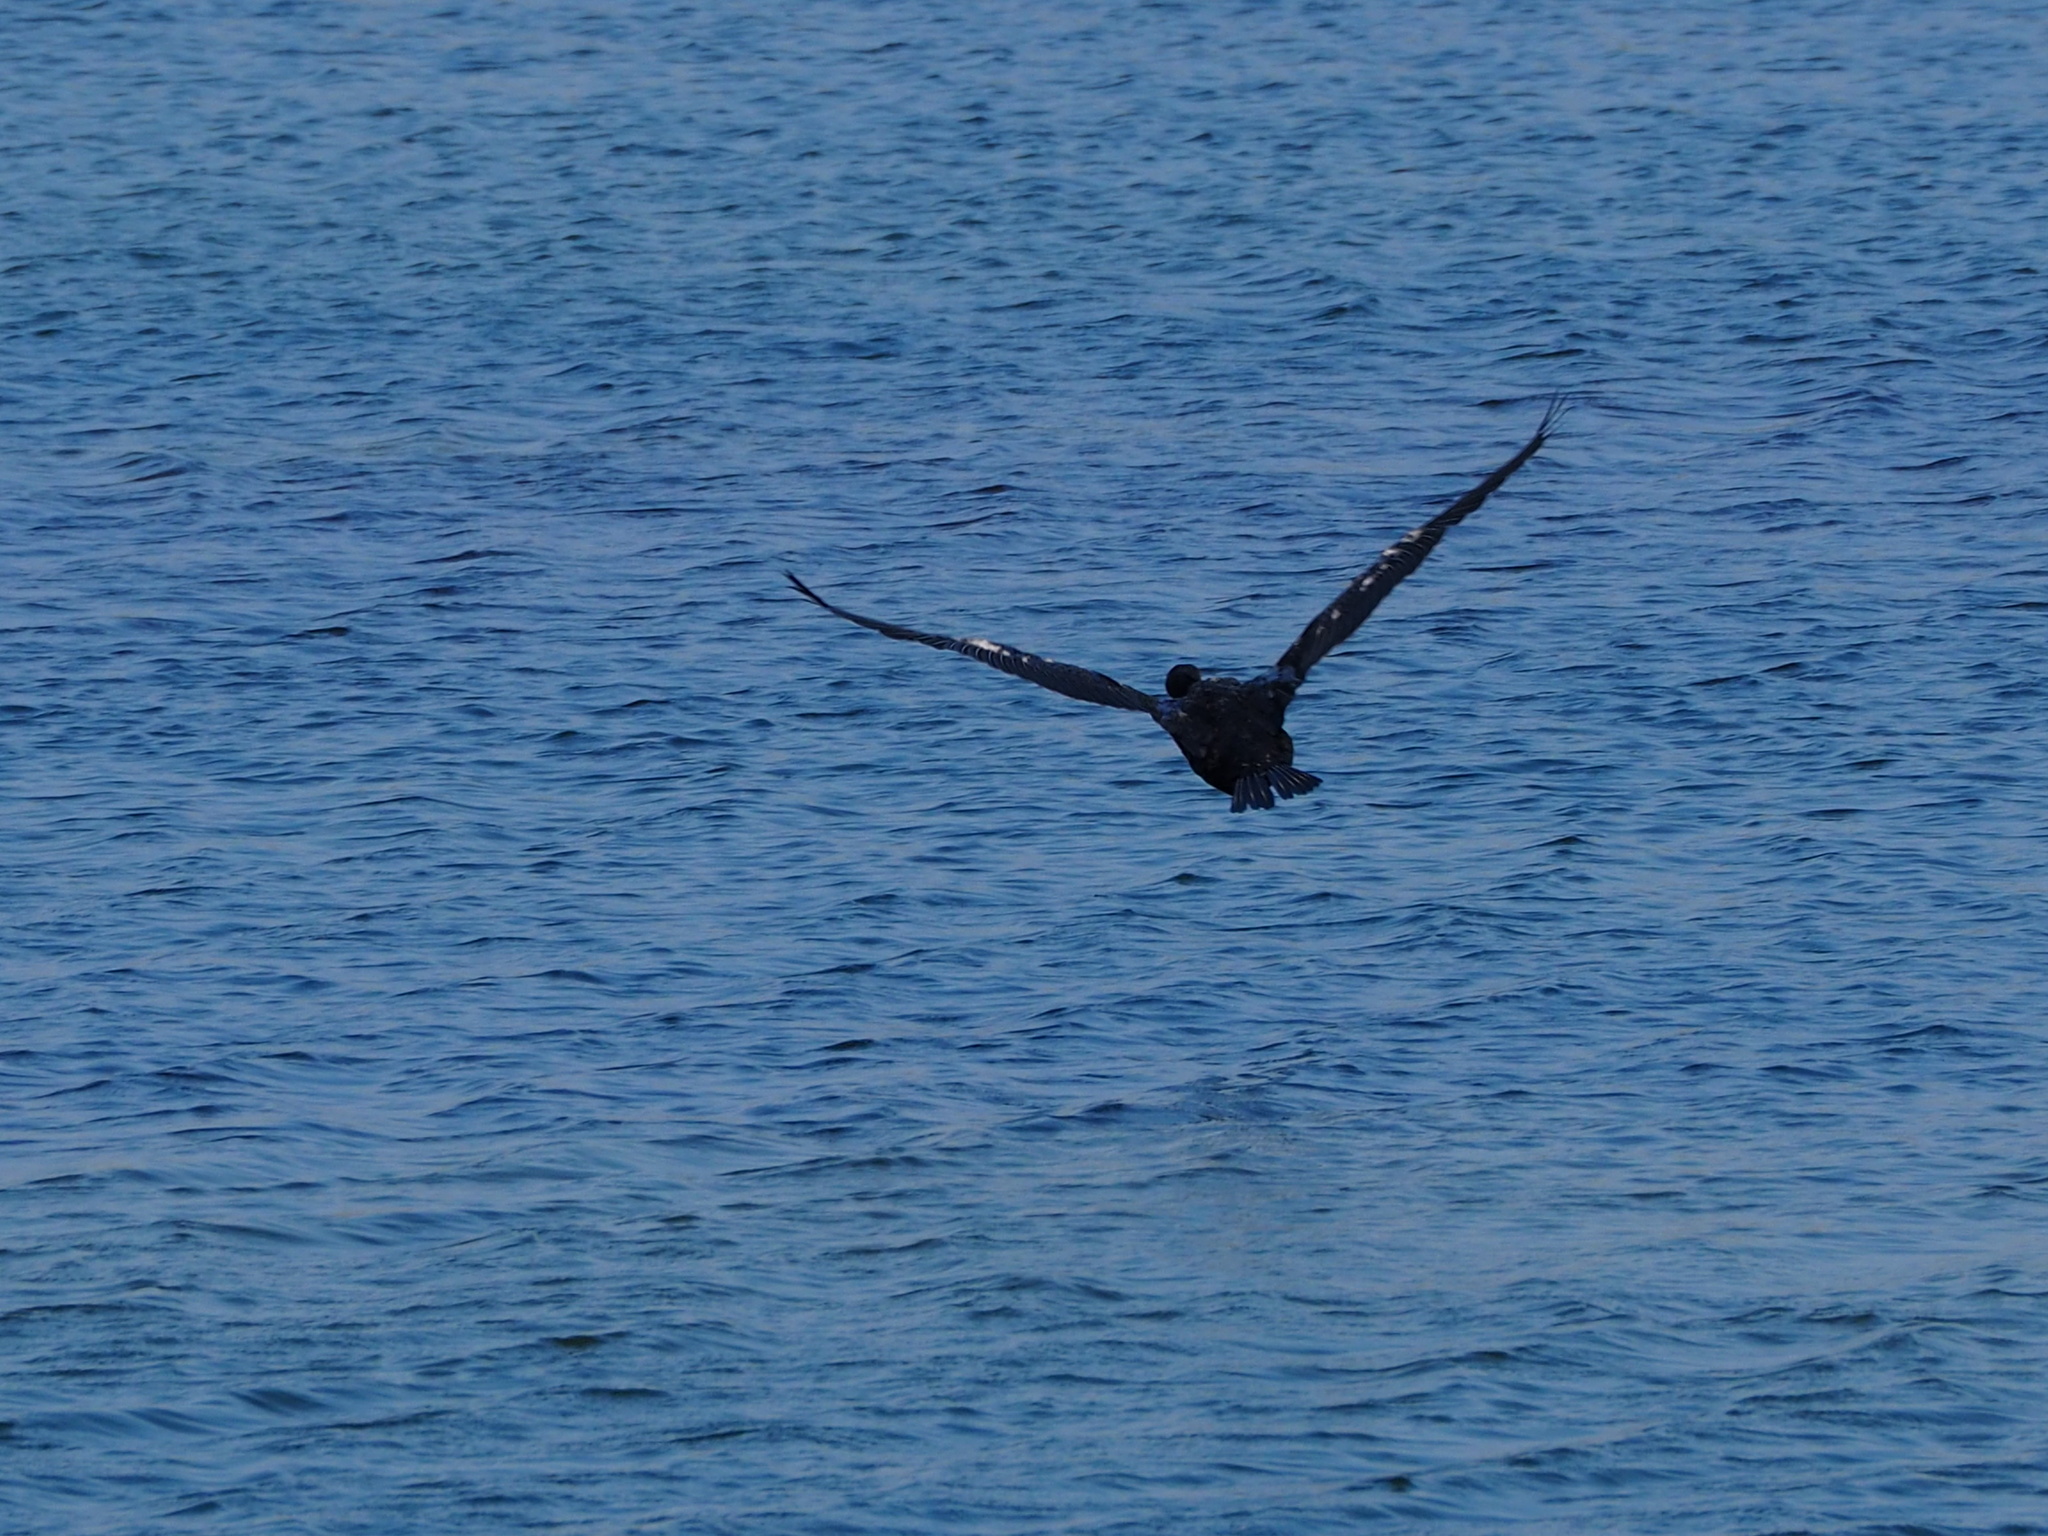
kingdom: Animalia
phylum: Chordata
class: Aves
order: Suliformes
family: Phalacrocoracidae
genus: Phalacrocorax
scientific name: Phalacrocorax carbo
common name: Great cormorant
